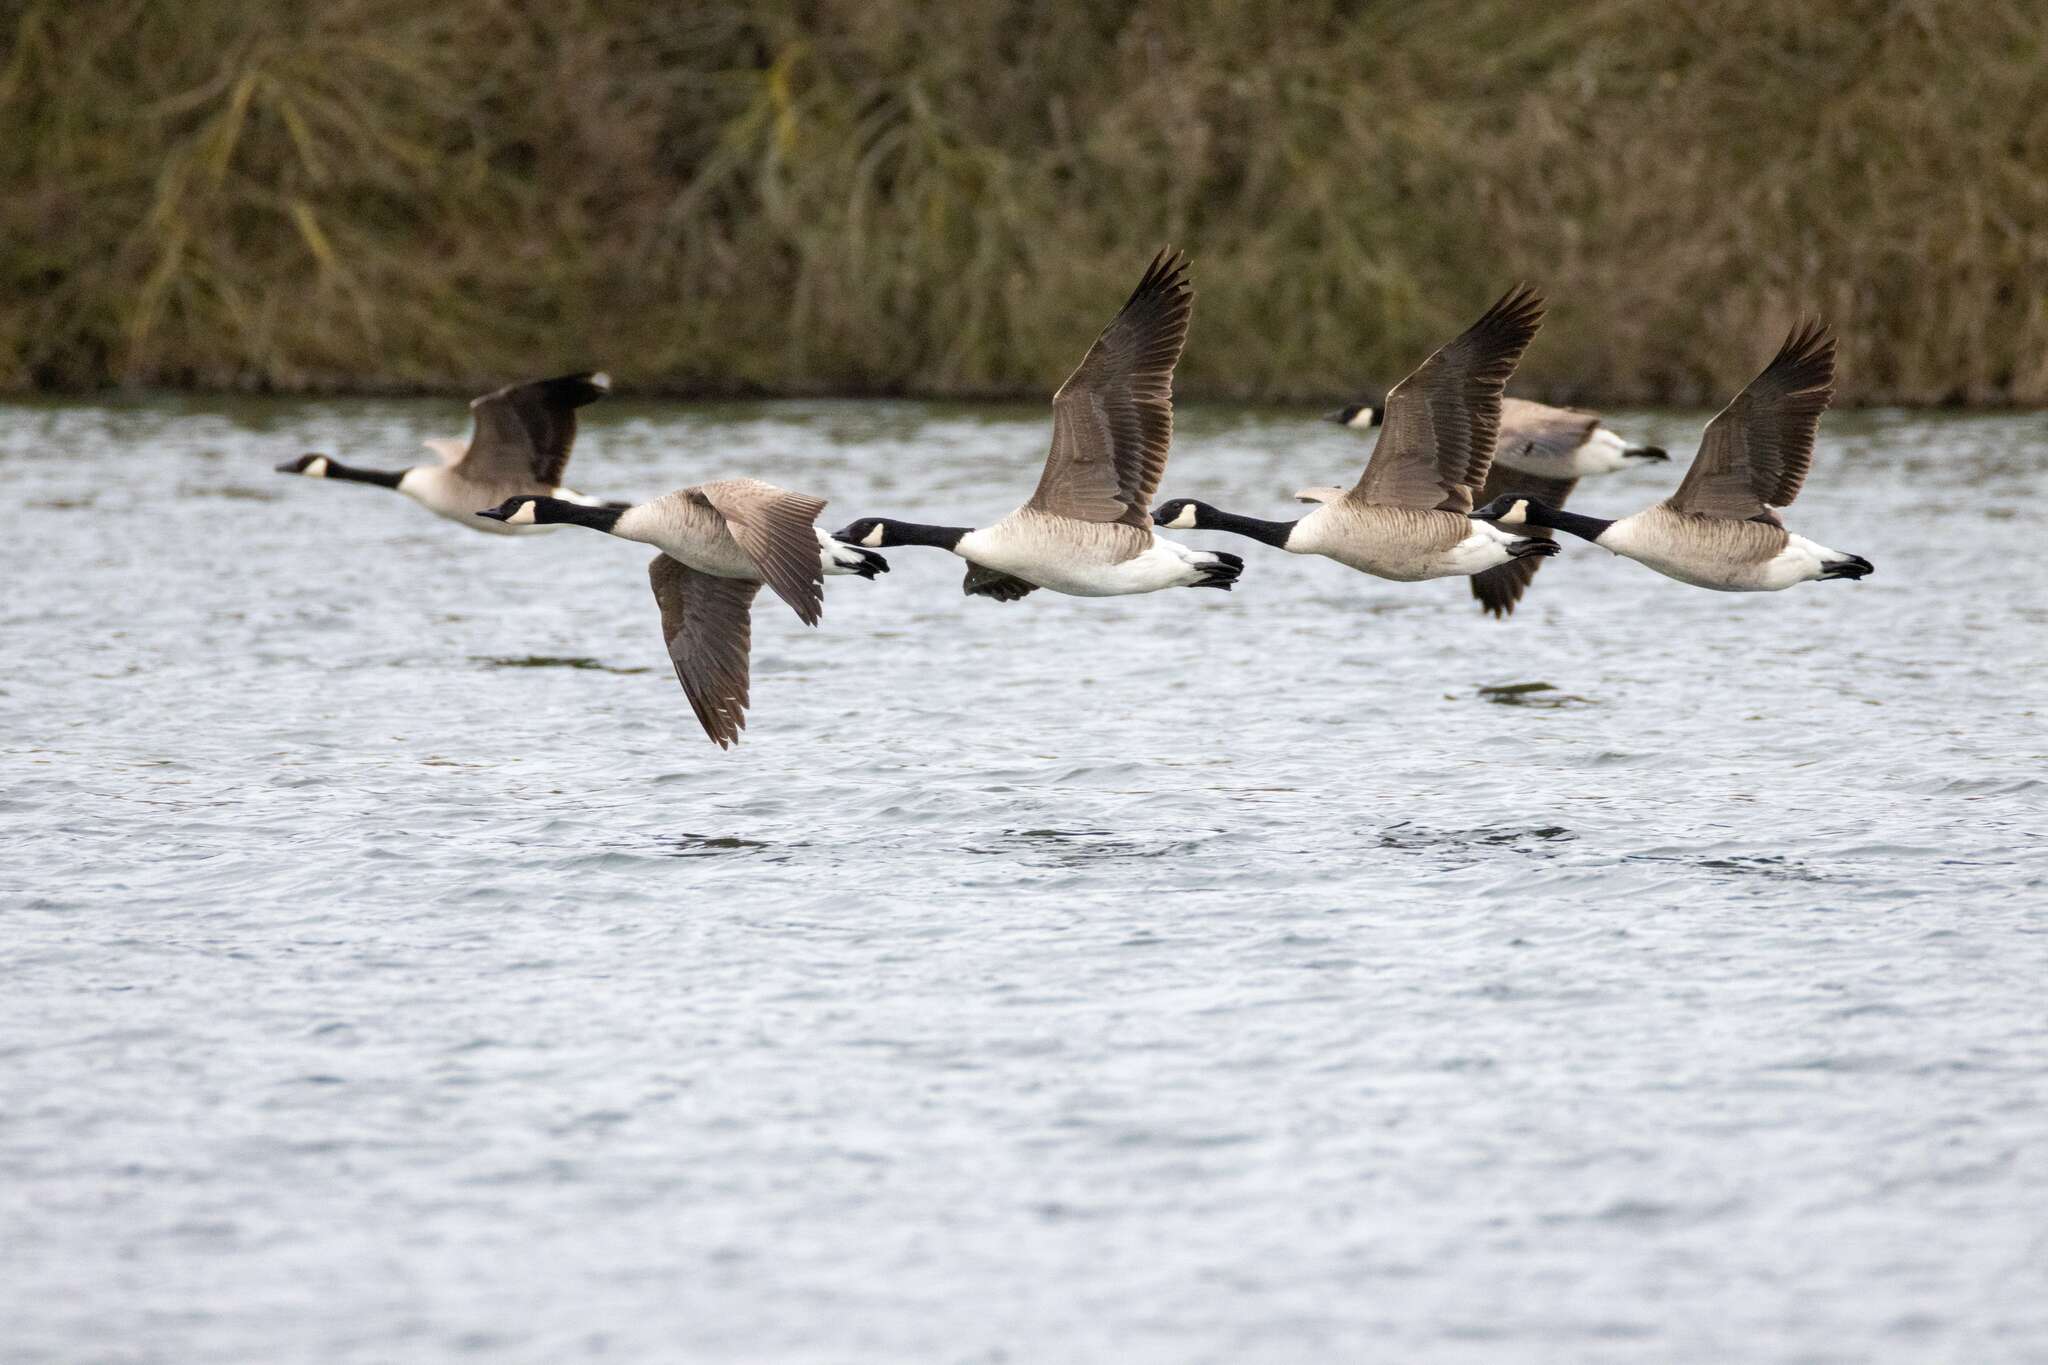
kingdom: Animalia
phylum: Chordata
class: Aves
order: Anseriformes
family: Anatidae
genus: Branta
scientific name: Branta canadensis
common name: Canada goose
